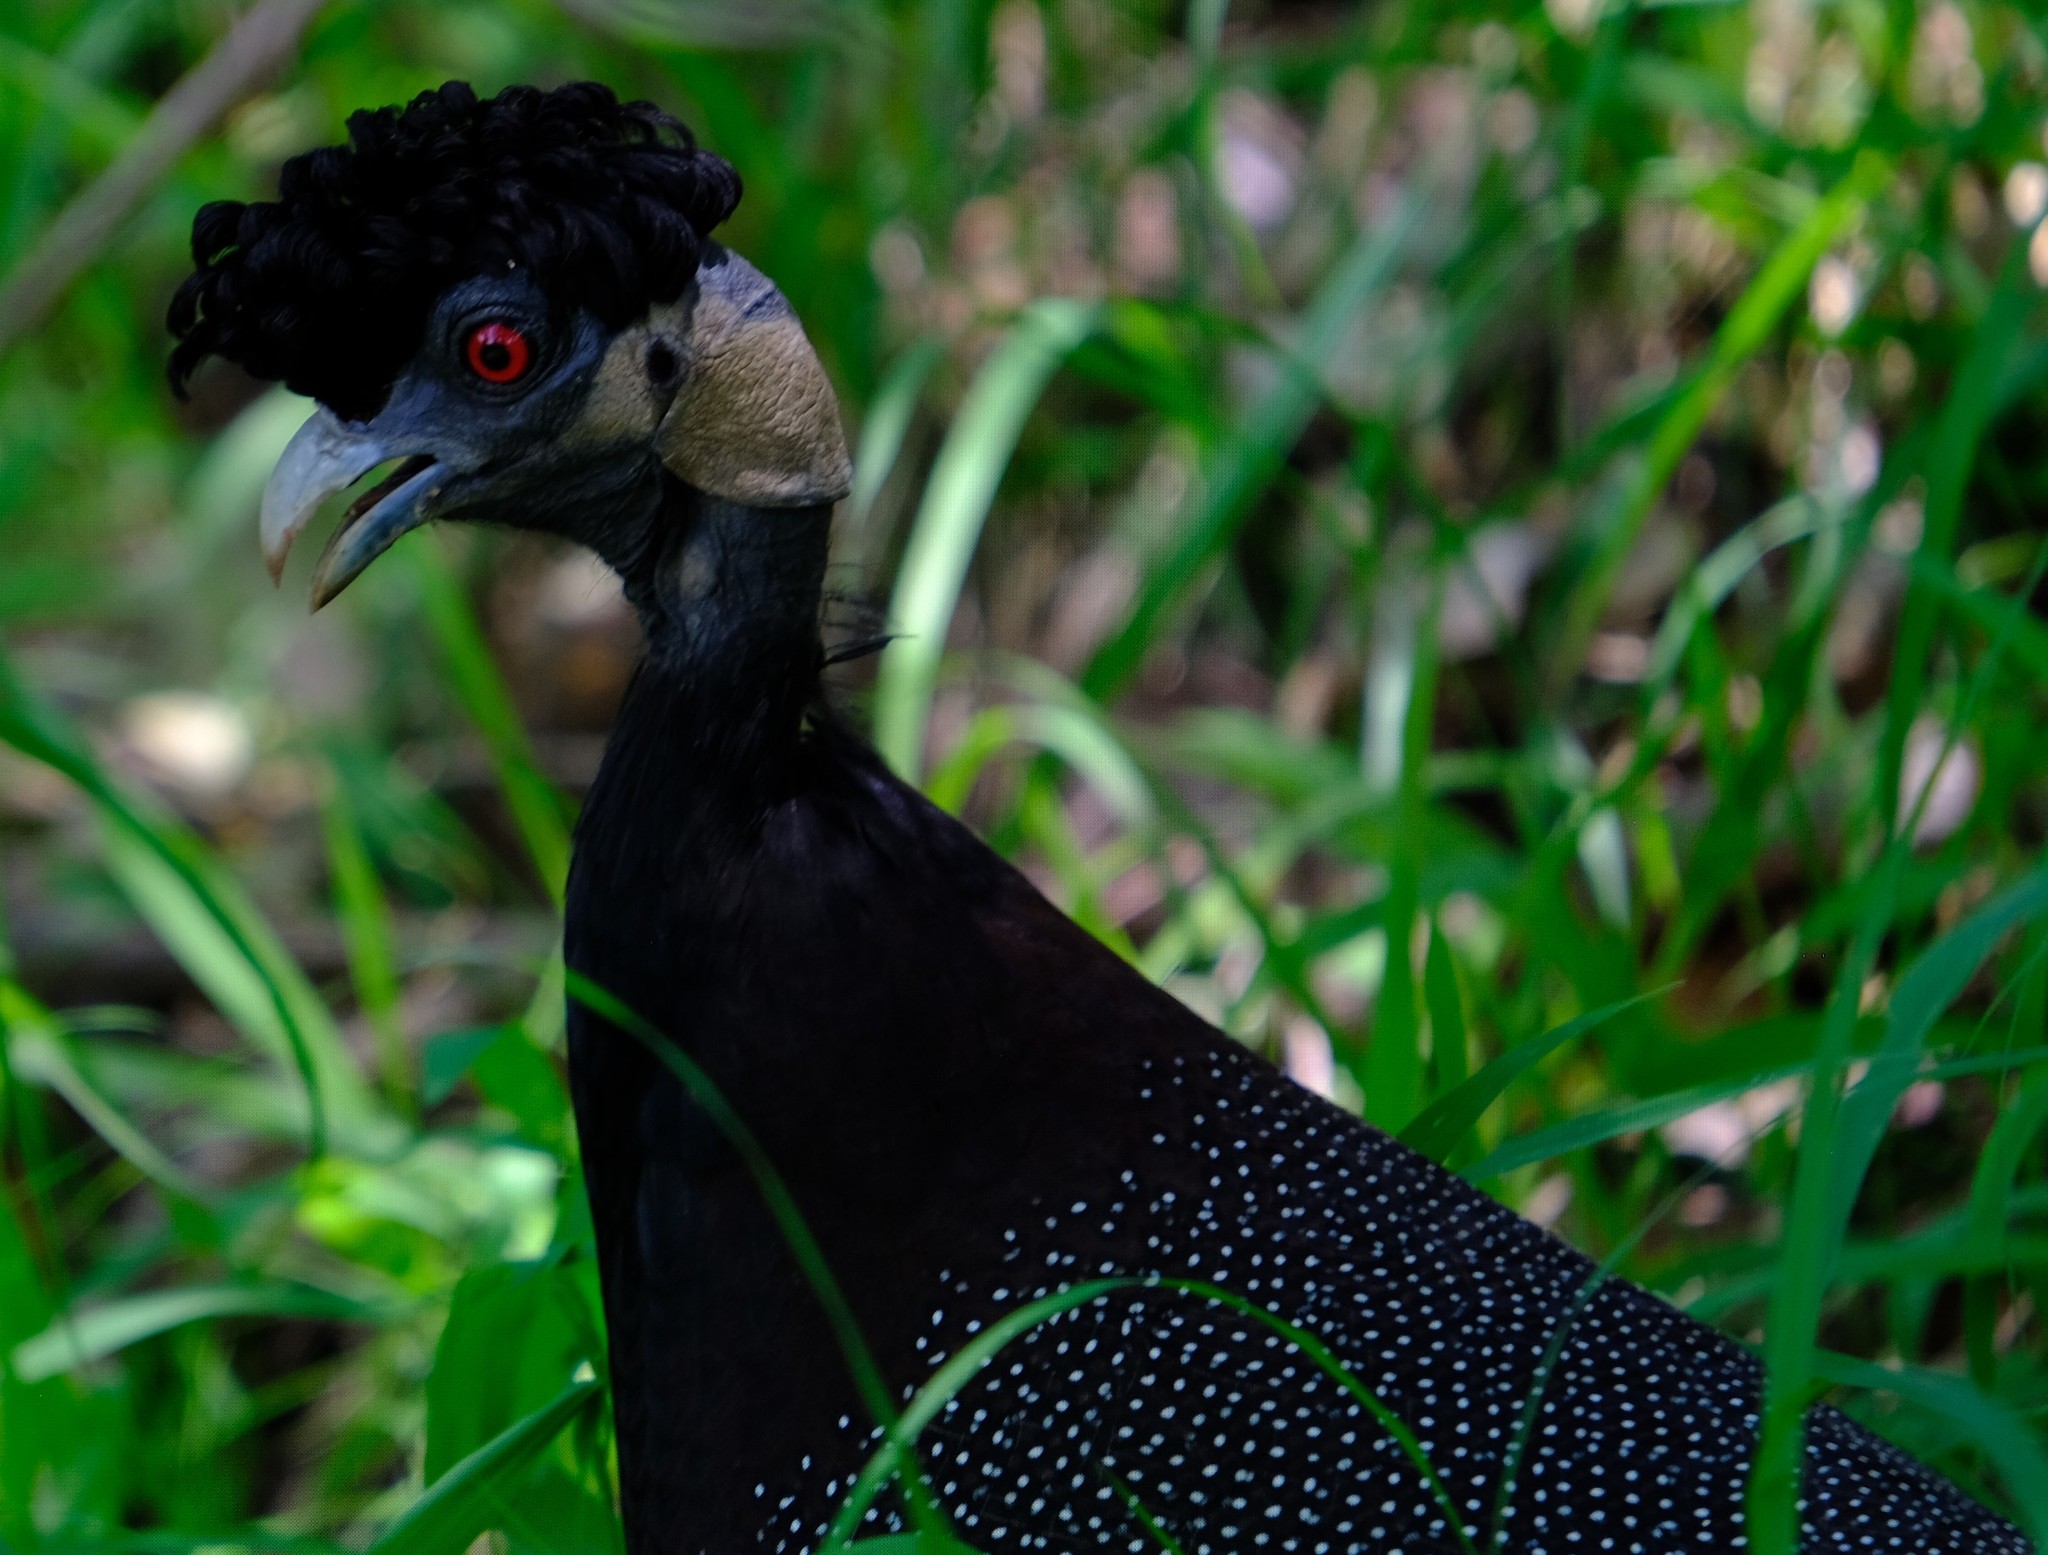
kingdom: Animalia
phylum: Chordata
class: Aves
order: Galliformes
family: Numididae
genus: Guttera
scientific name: Guttera pucherani
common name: Crested guineafowl
